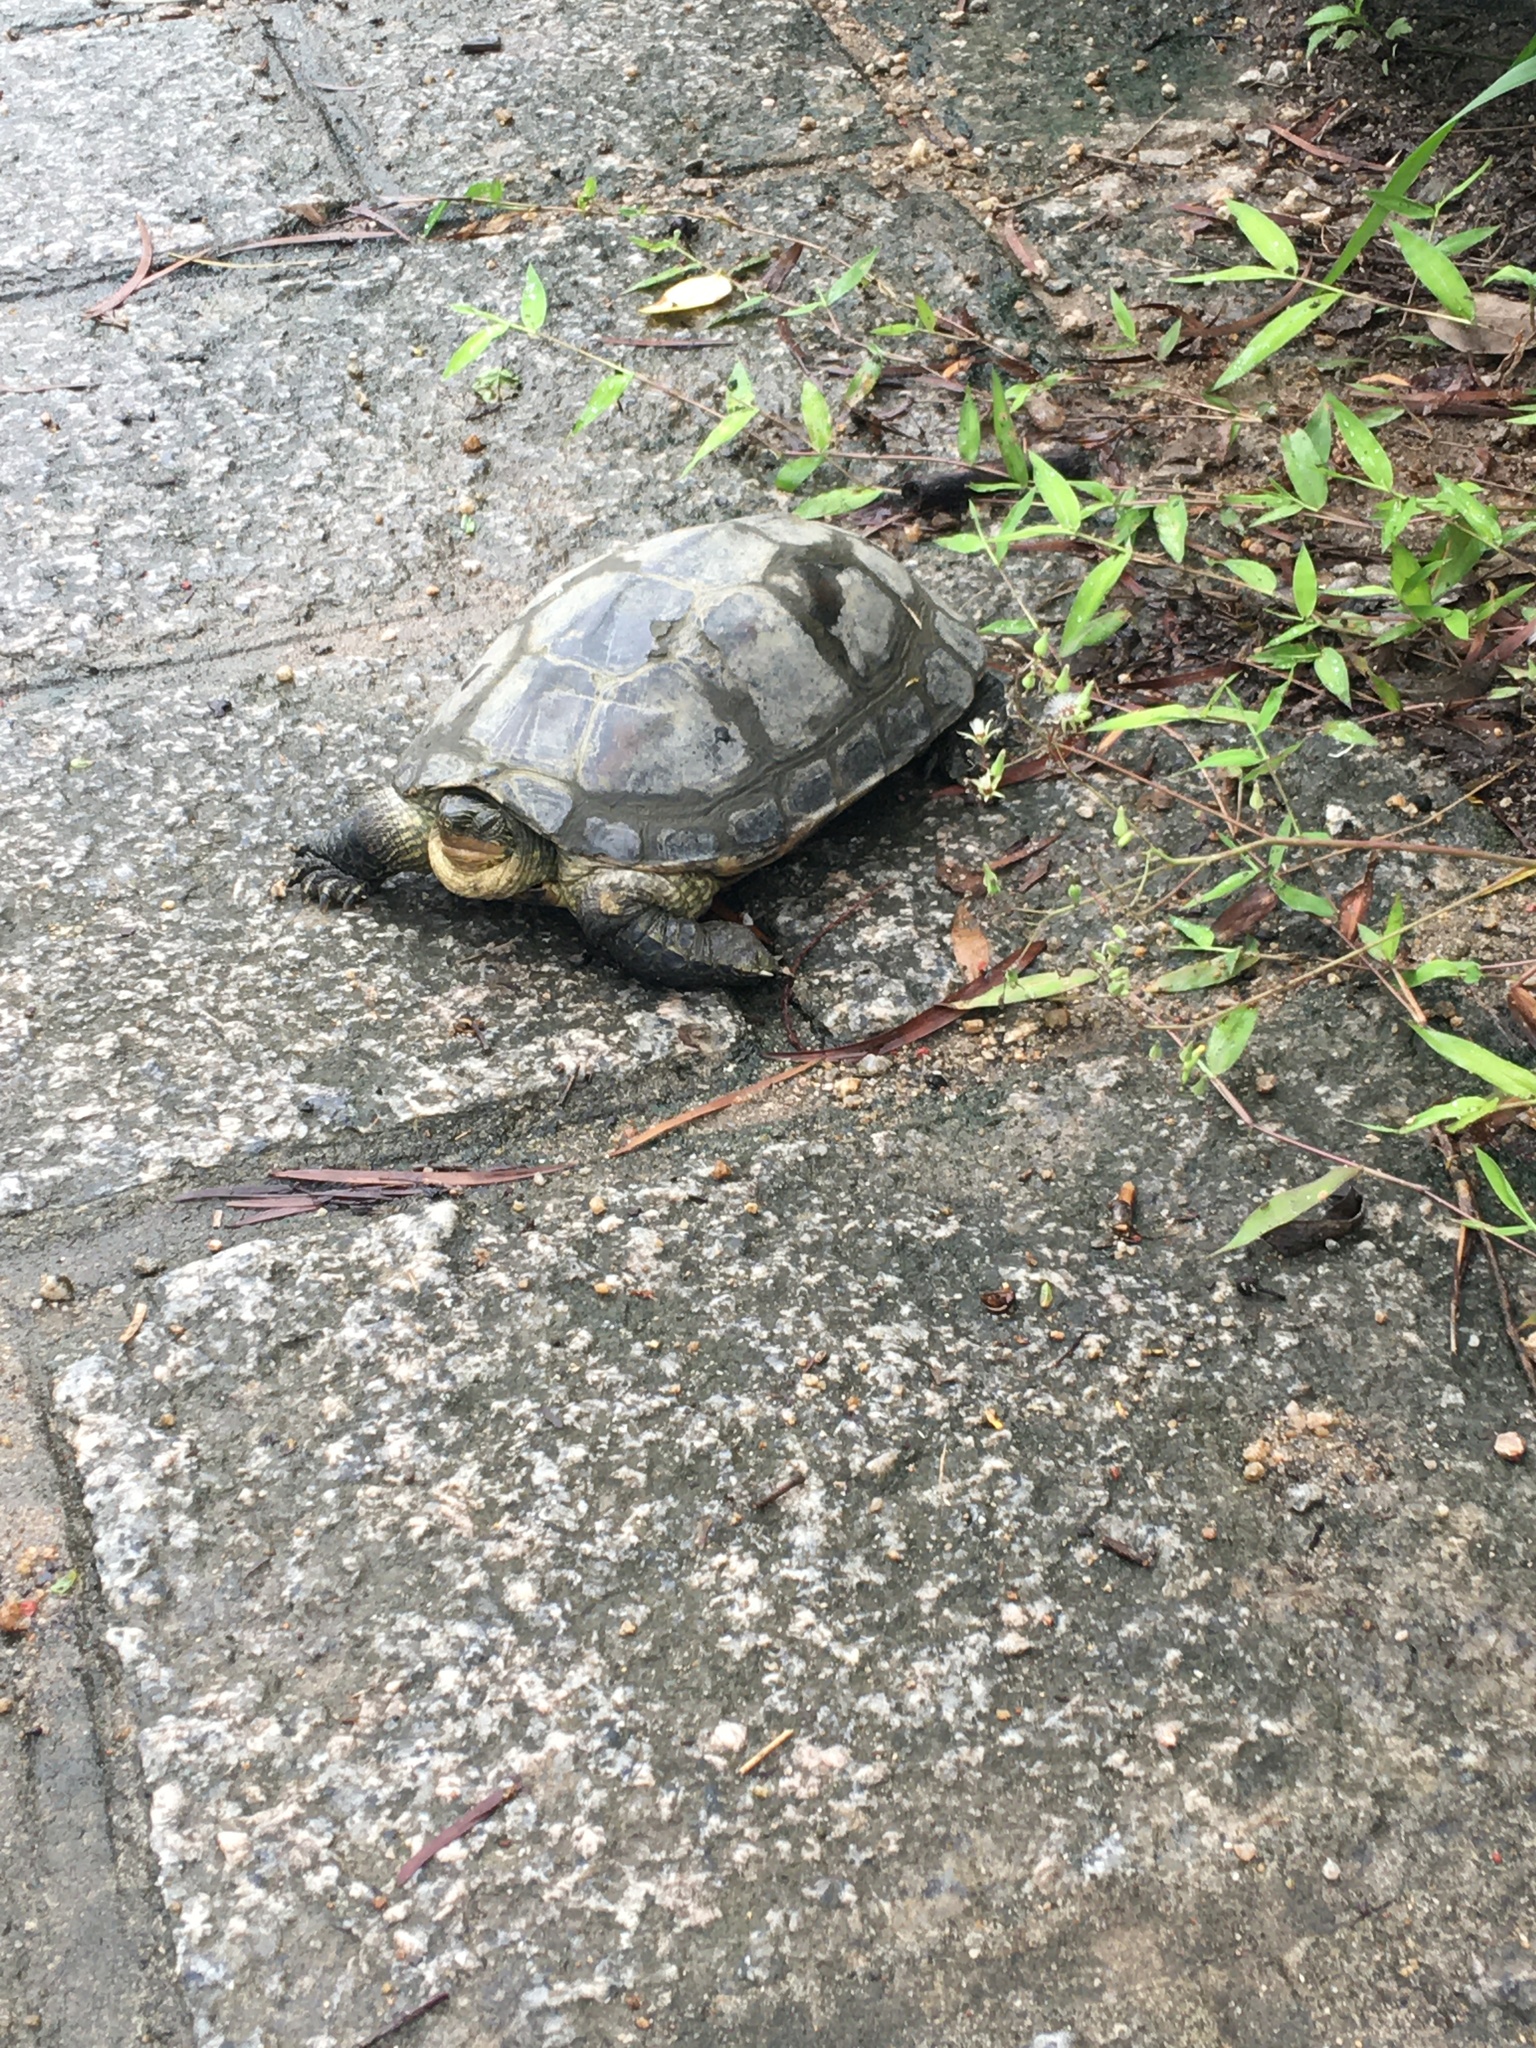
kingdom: Animalia
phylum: Chordata
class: Testudines
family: Geoemydidae
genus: Mauremys
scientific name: Mauremys sinensis
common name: Chinese stripe-necked turtle
